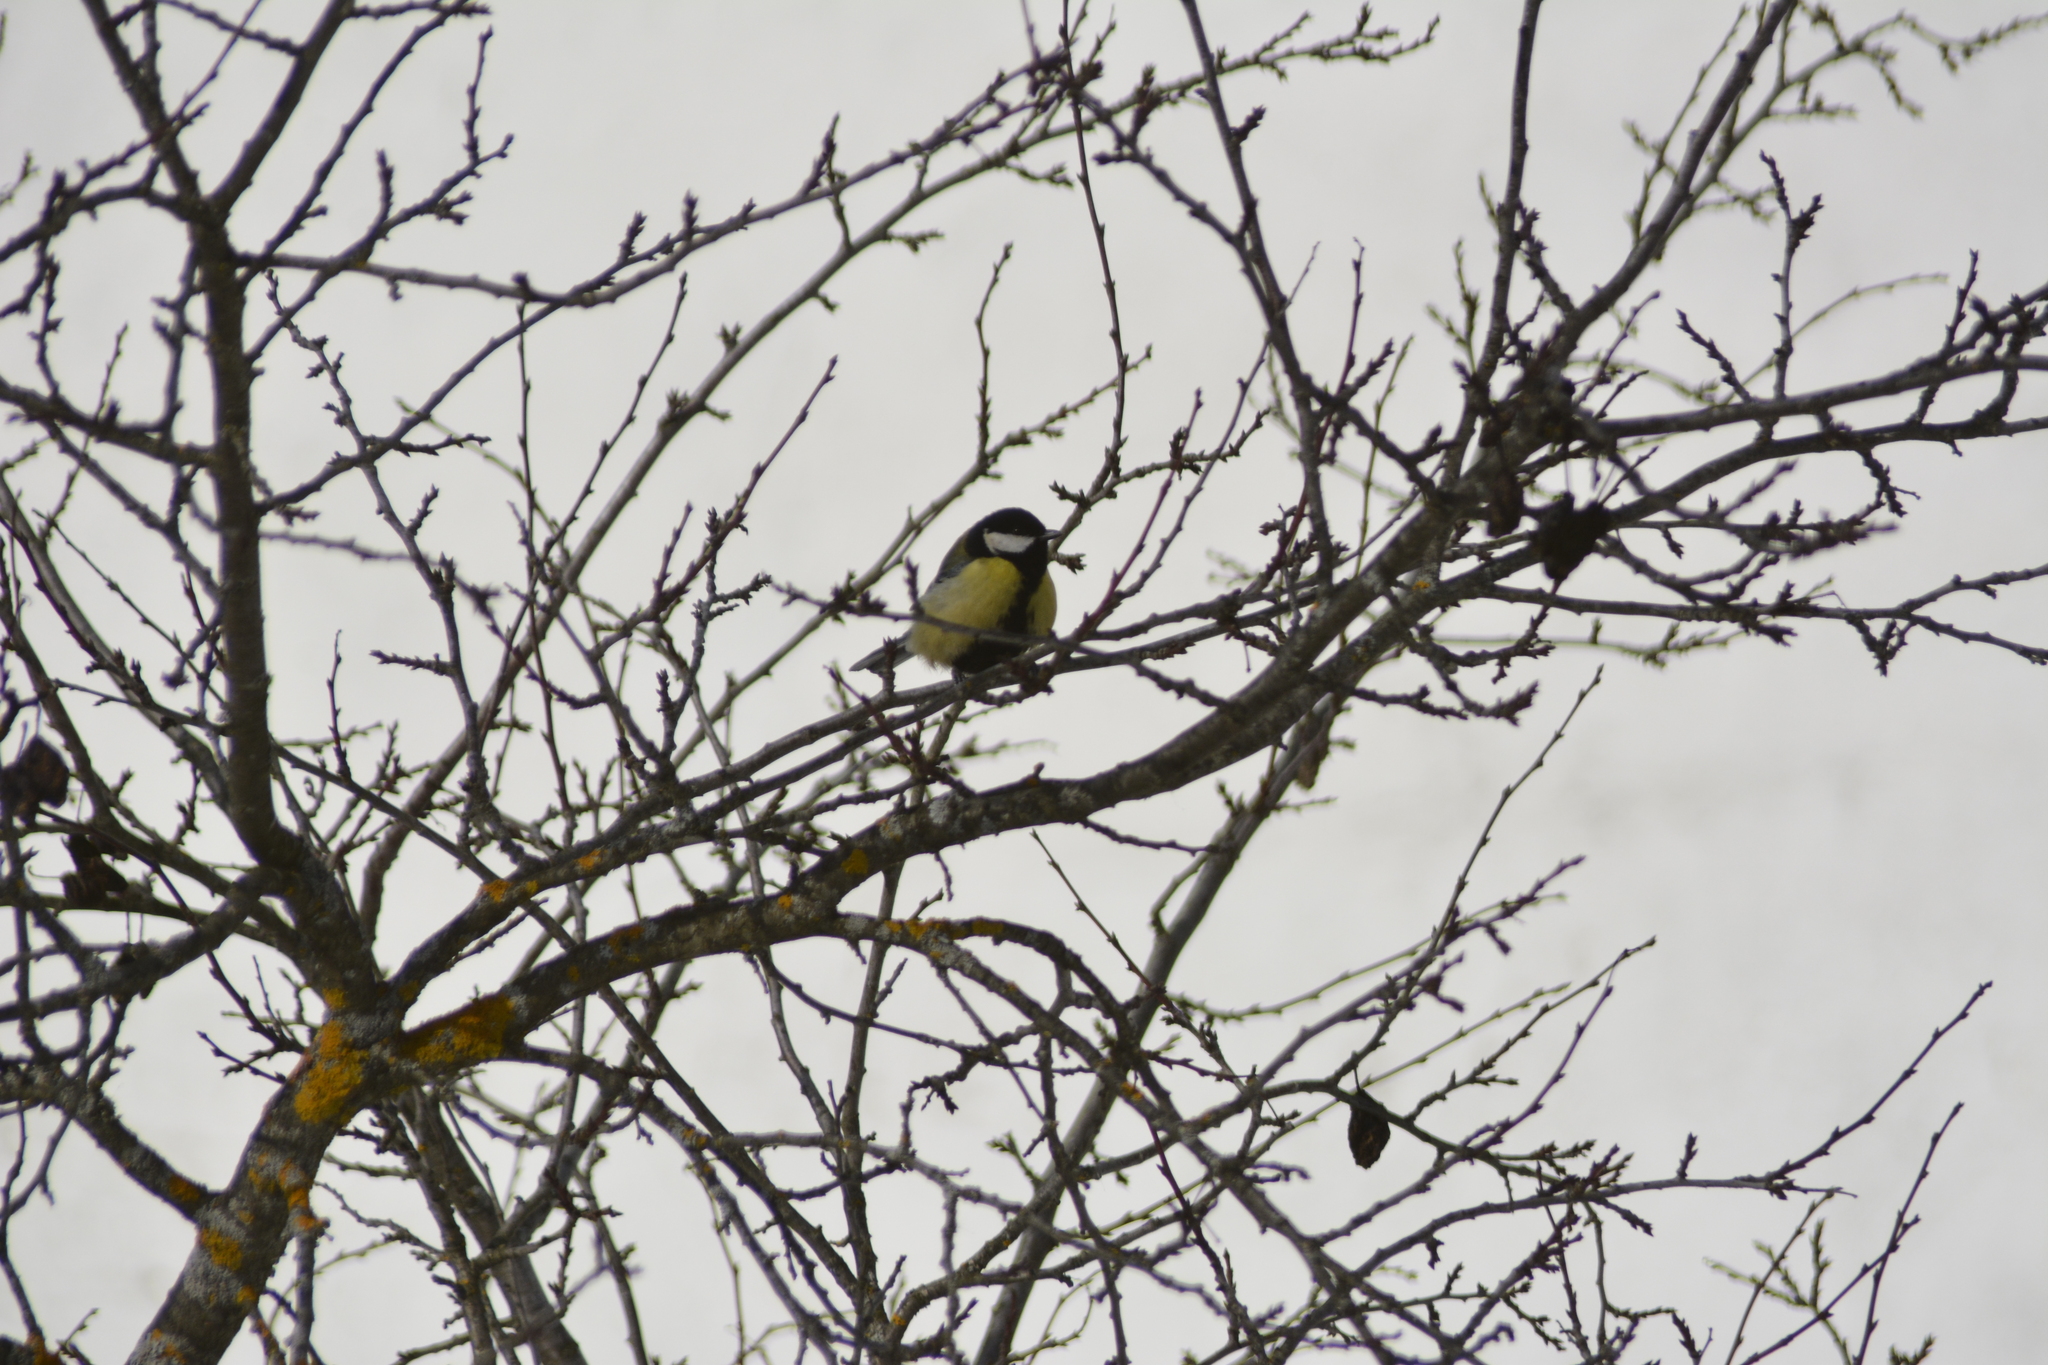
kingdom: Animalia
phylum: Chordata
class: Aves
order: Passeriformes
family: Paridae
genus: Parus
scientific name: Parus major
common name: Great tit
